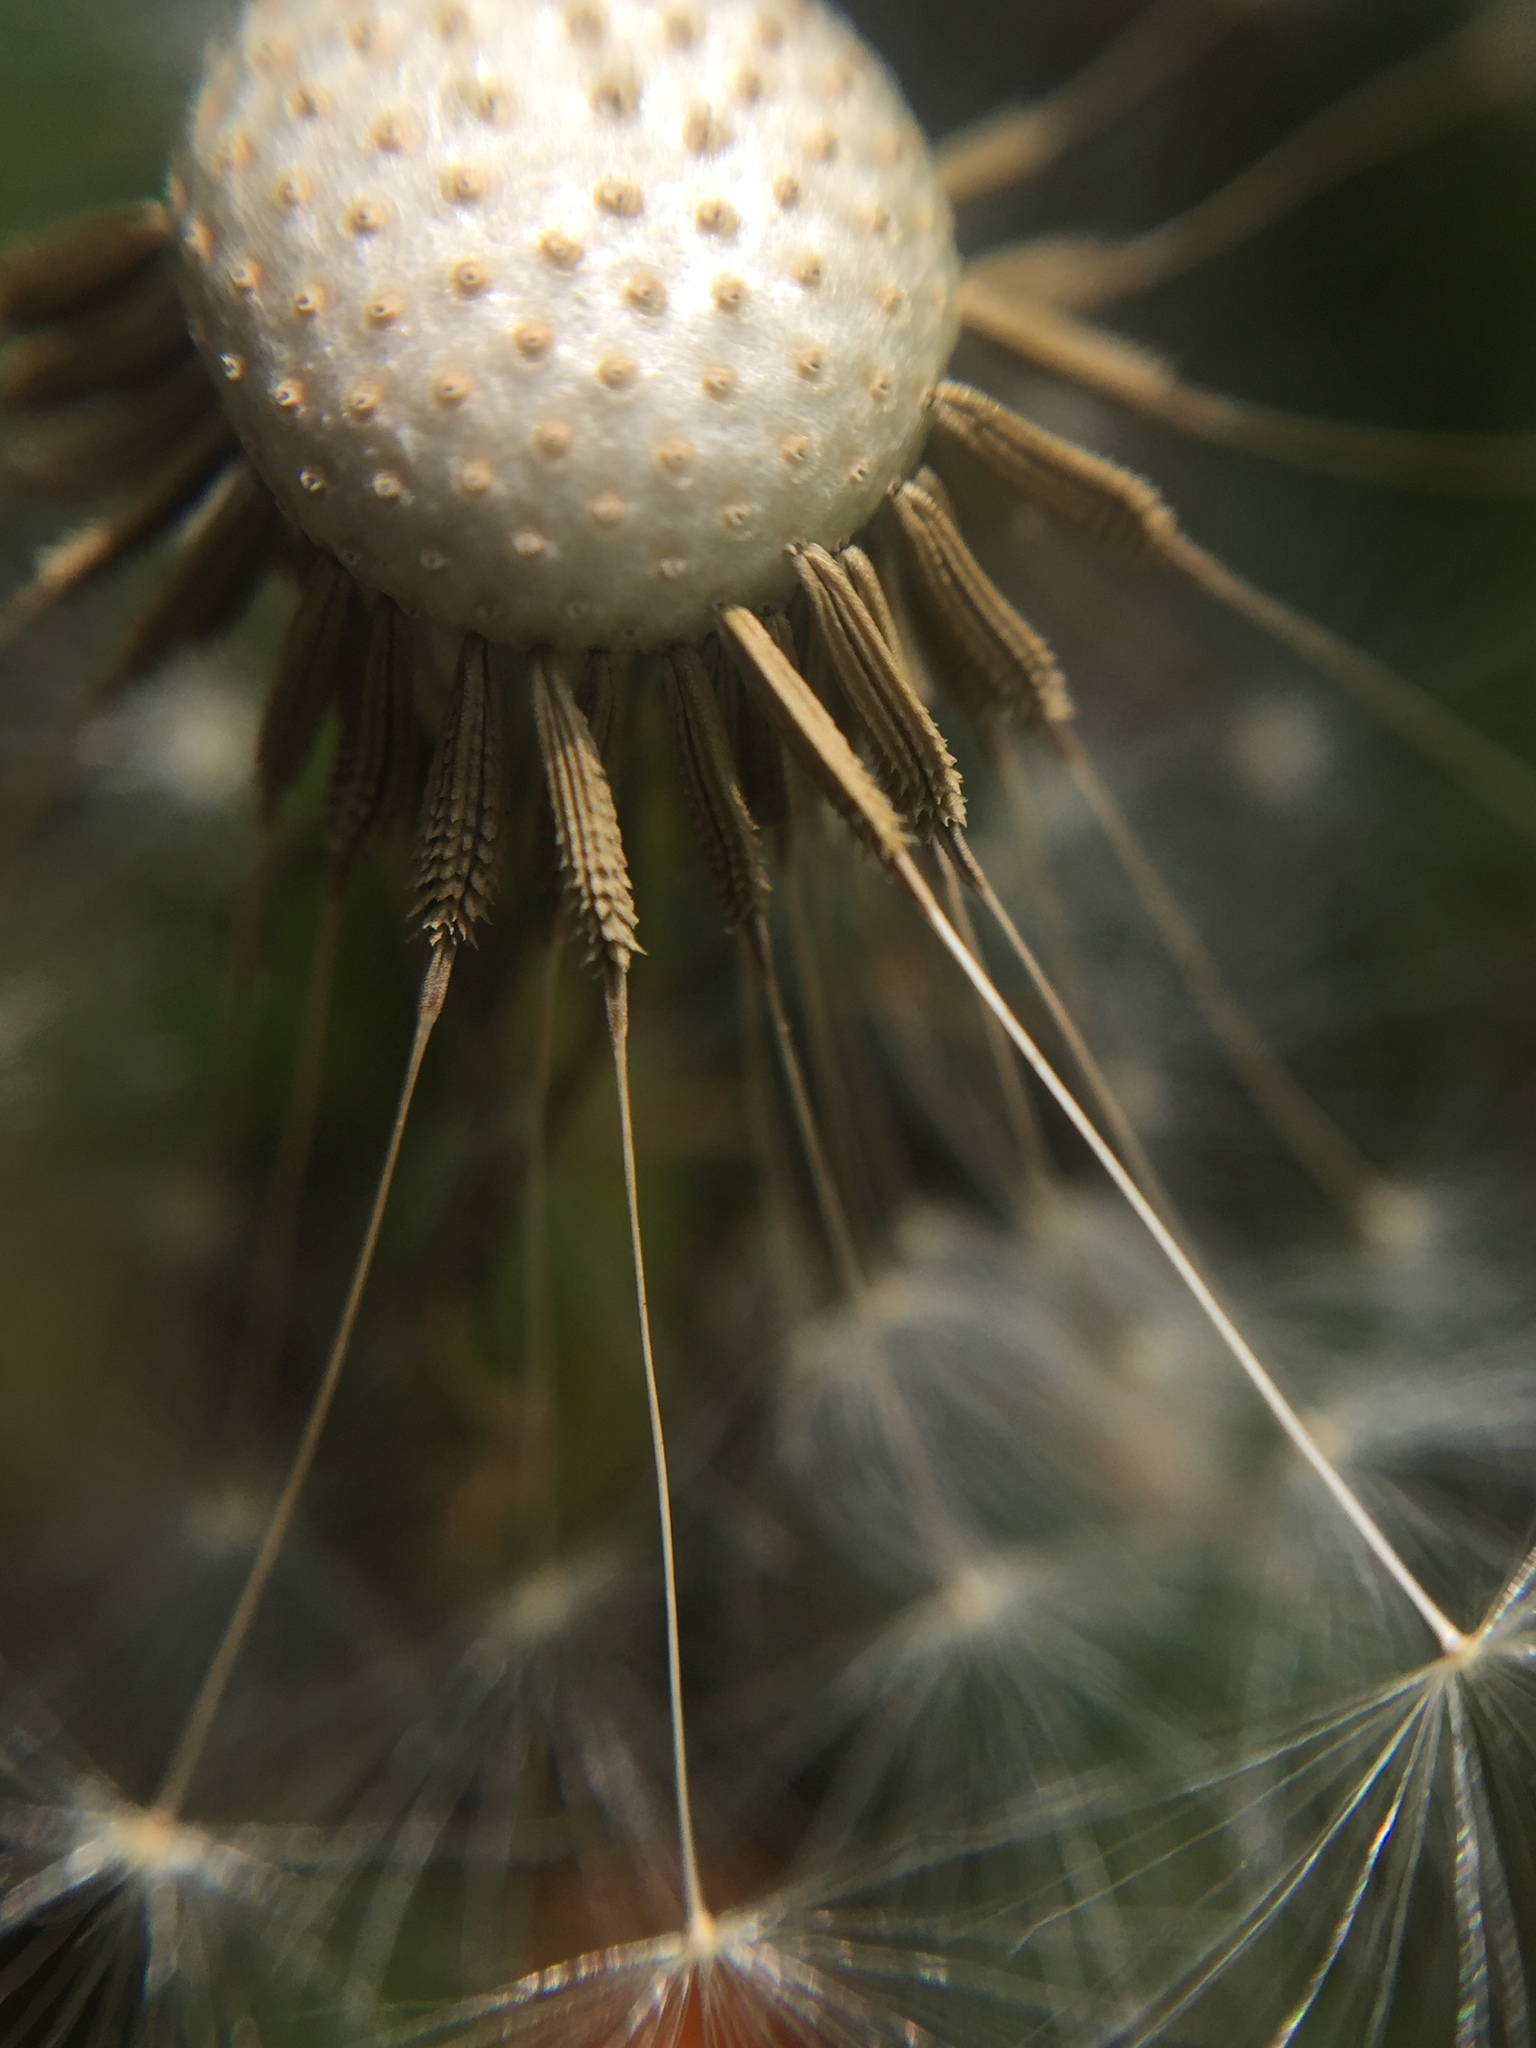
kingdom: Plantae
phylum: Tracheophyta
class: Magnoliopsida
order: Asterales
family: Asteraceae
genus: Taraxacum
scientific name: Taraxacum officinale
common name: Common dandelion
